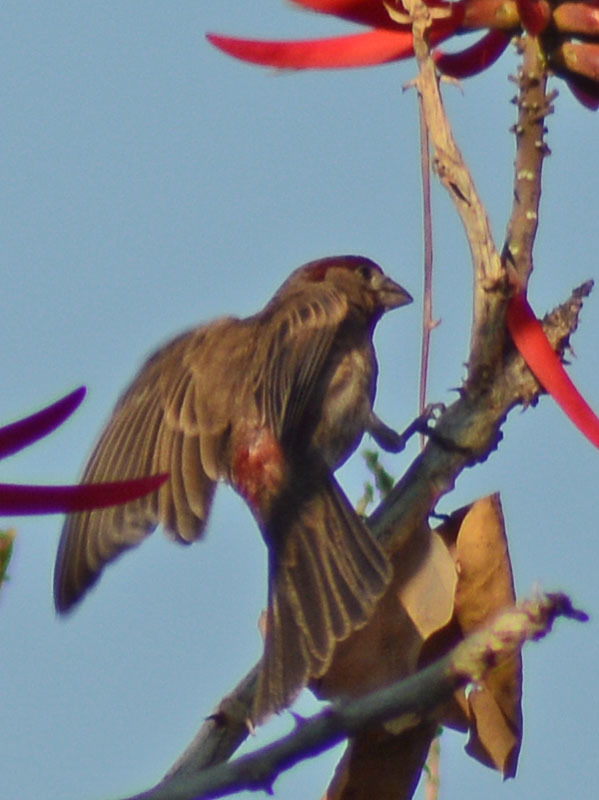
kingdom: Animalia
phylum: Chordata
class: Aves
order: Passeriformes
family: Fringillidae
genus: Haemorhous
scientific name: Haemorhous mexicanus
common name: House finch
